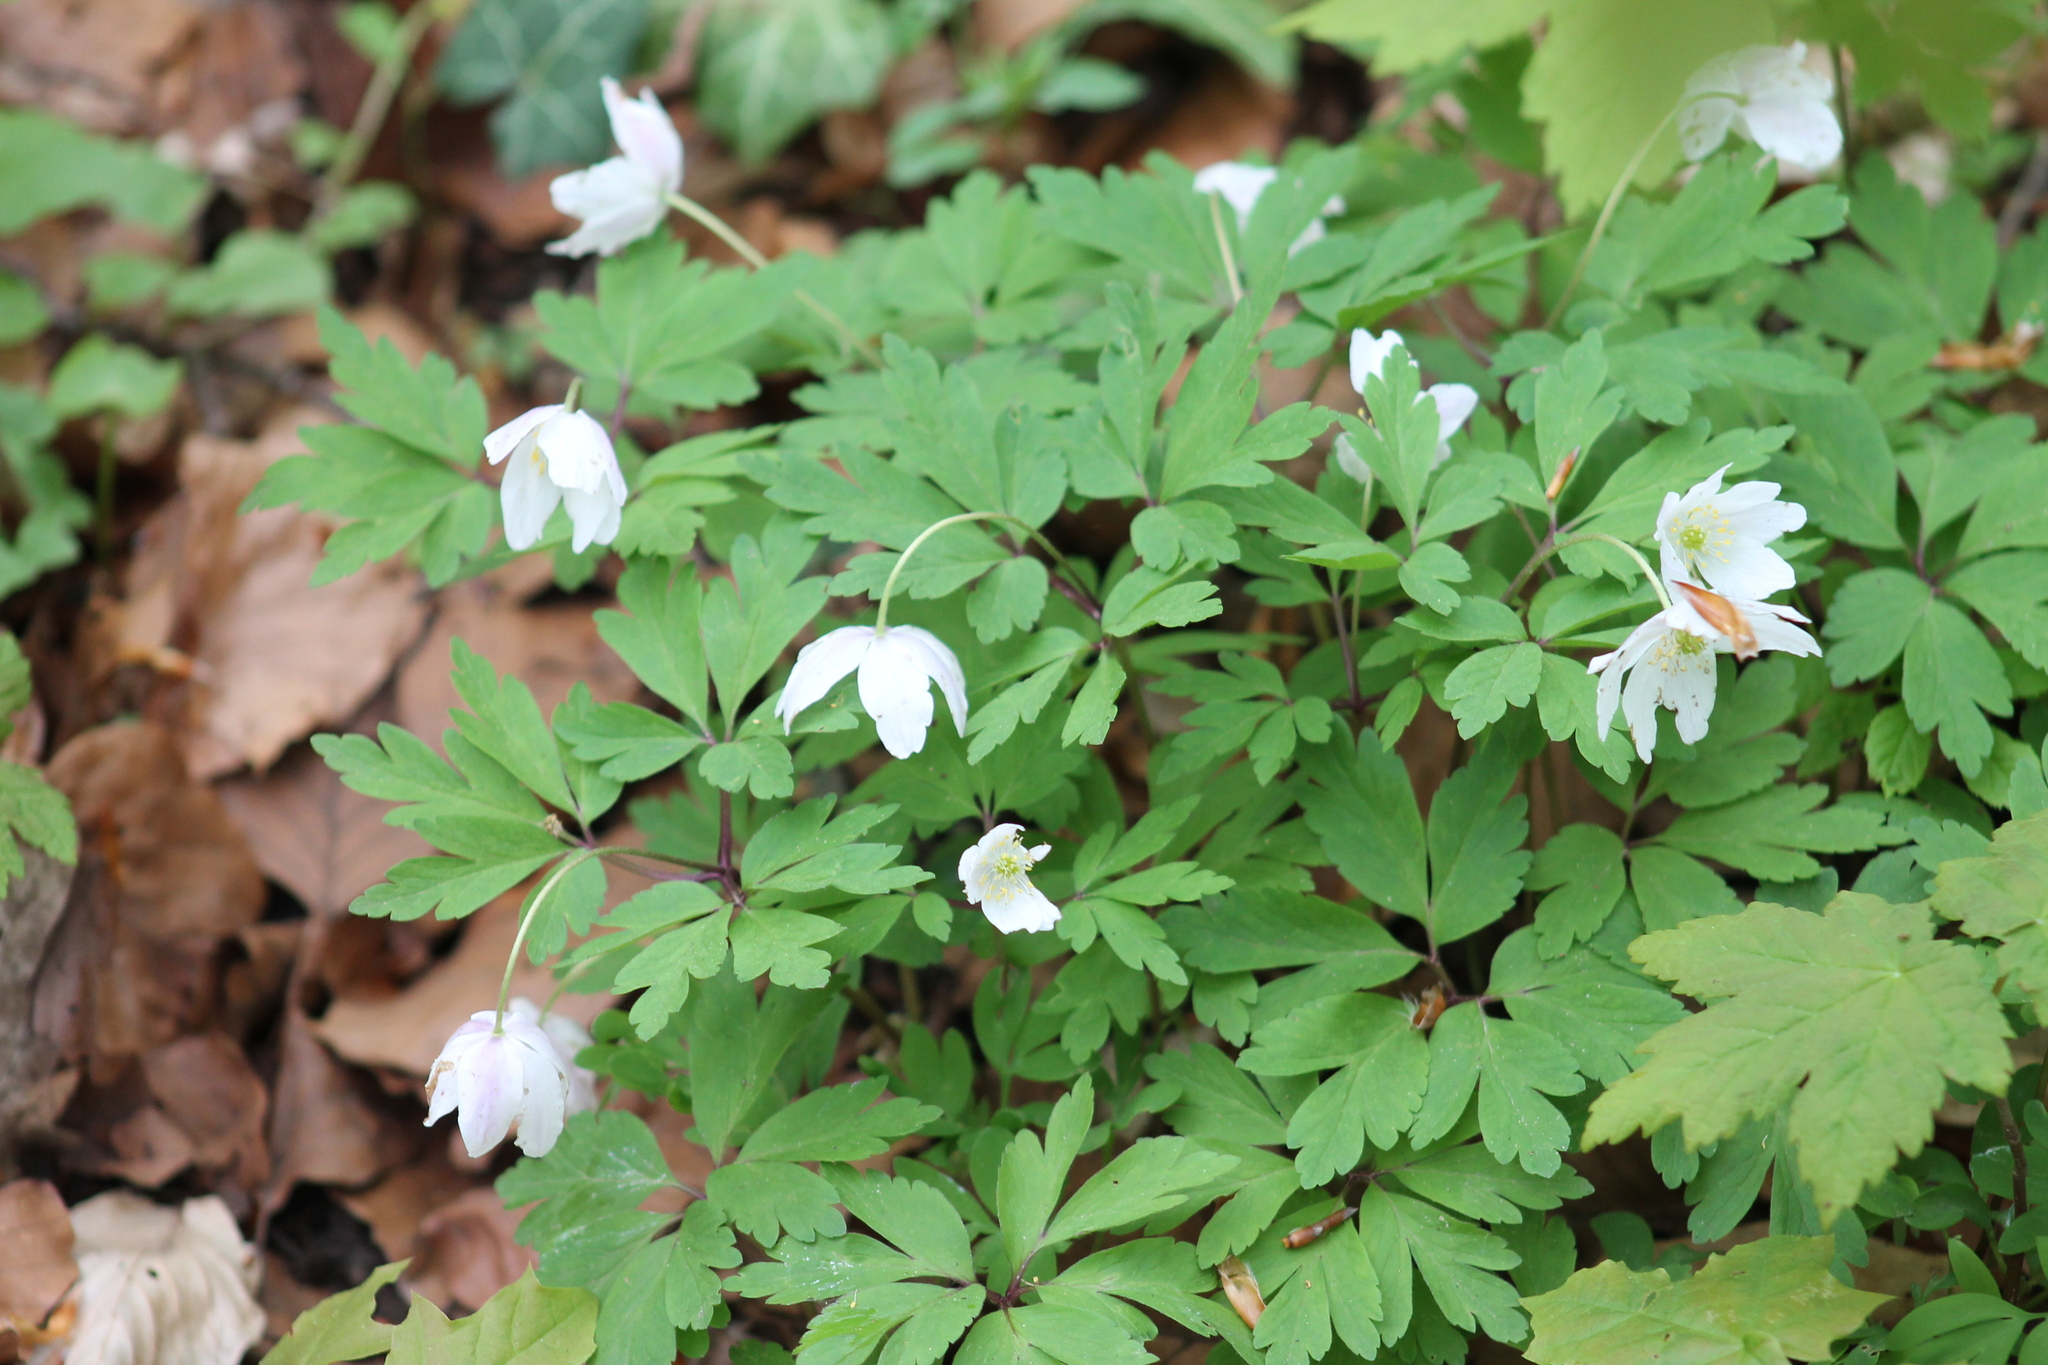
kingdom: Plantae
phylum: Tracheophyta
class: Magnoliopsida
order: Ranunculales
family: Ranunculaceae
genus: Anemone
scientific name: Anemone nemorosa
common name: Wood anemone
